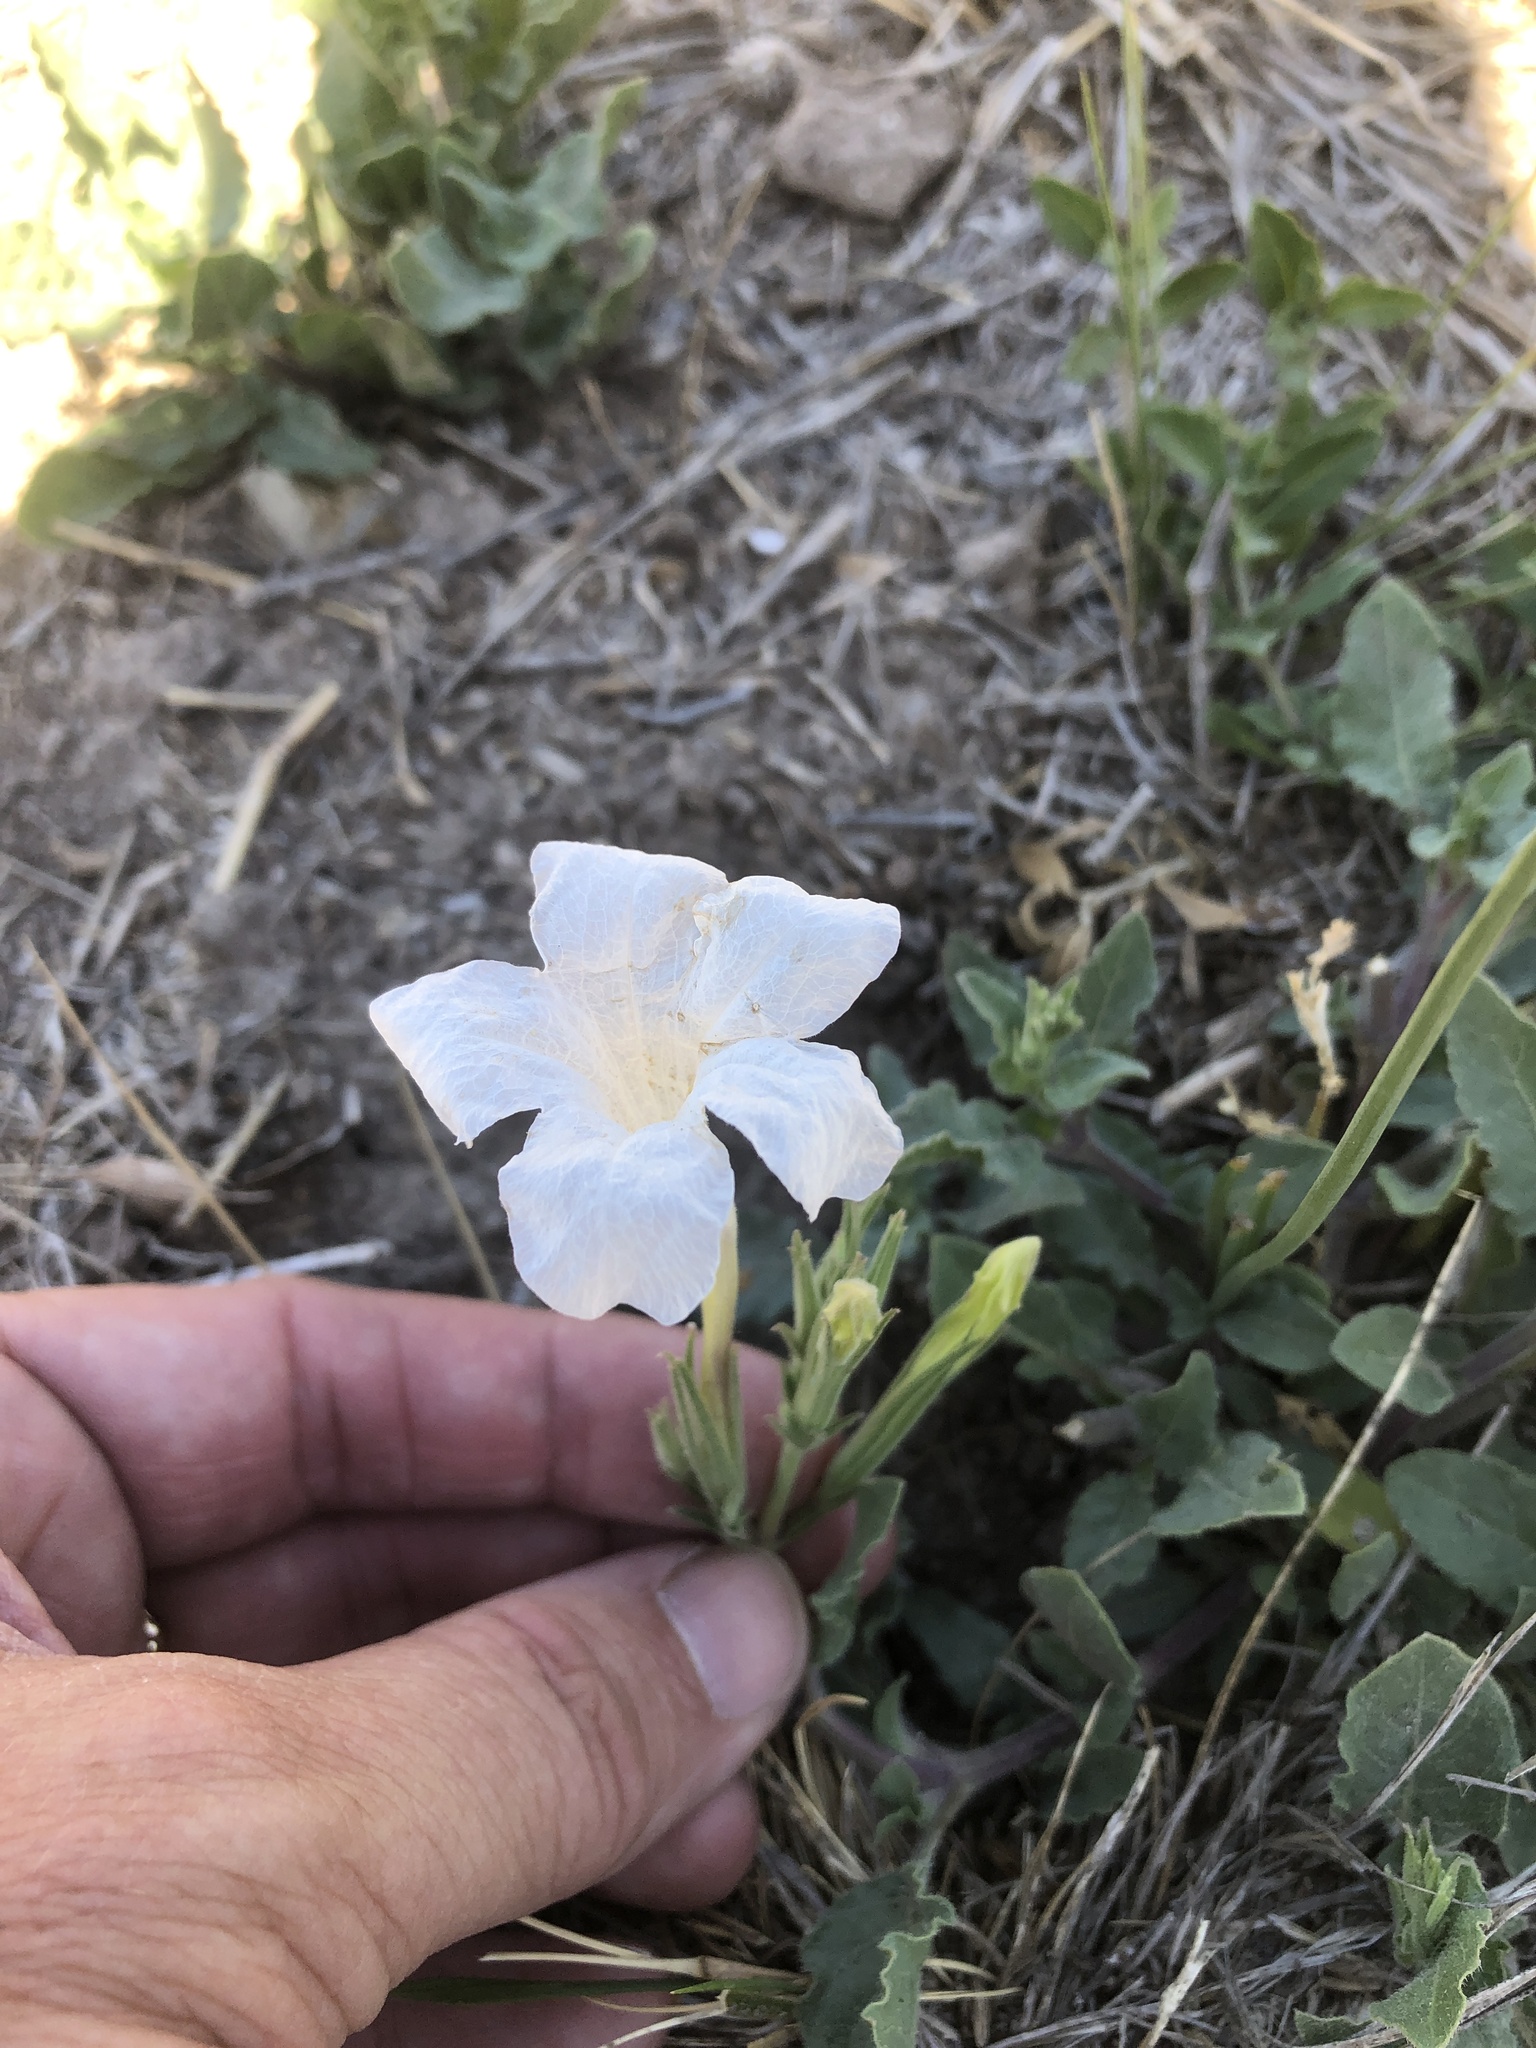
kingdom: Plantae
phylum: Tracheophyta
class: Magnoliopsida
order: Lamiales
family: Acanthaceae
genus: Ruellia
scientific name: Ruellia metziae
